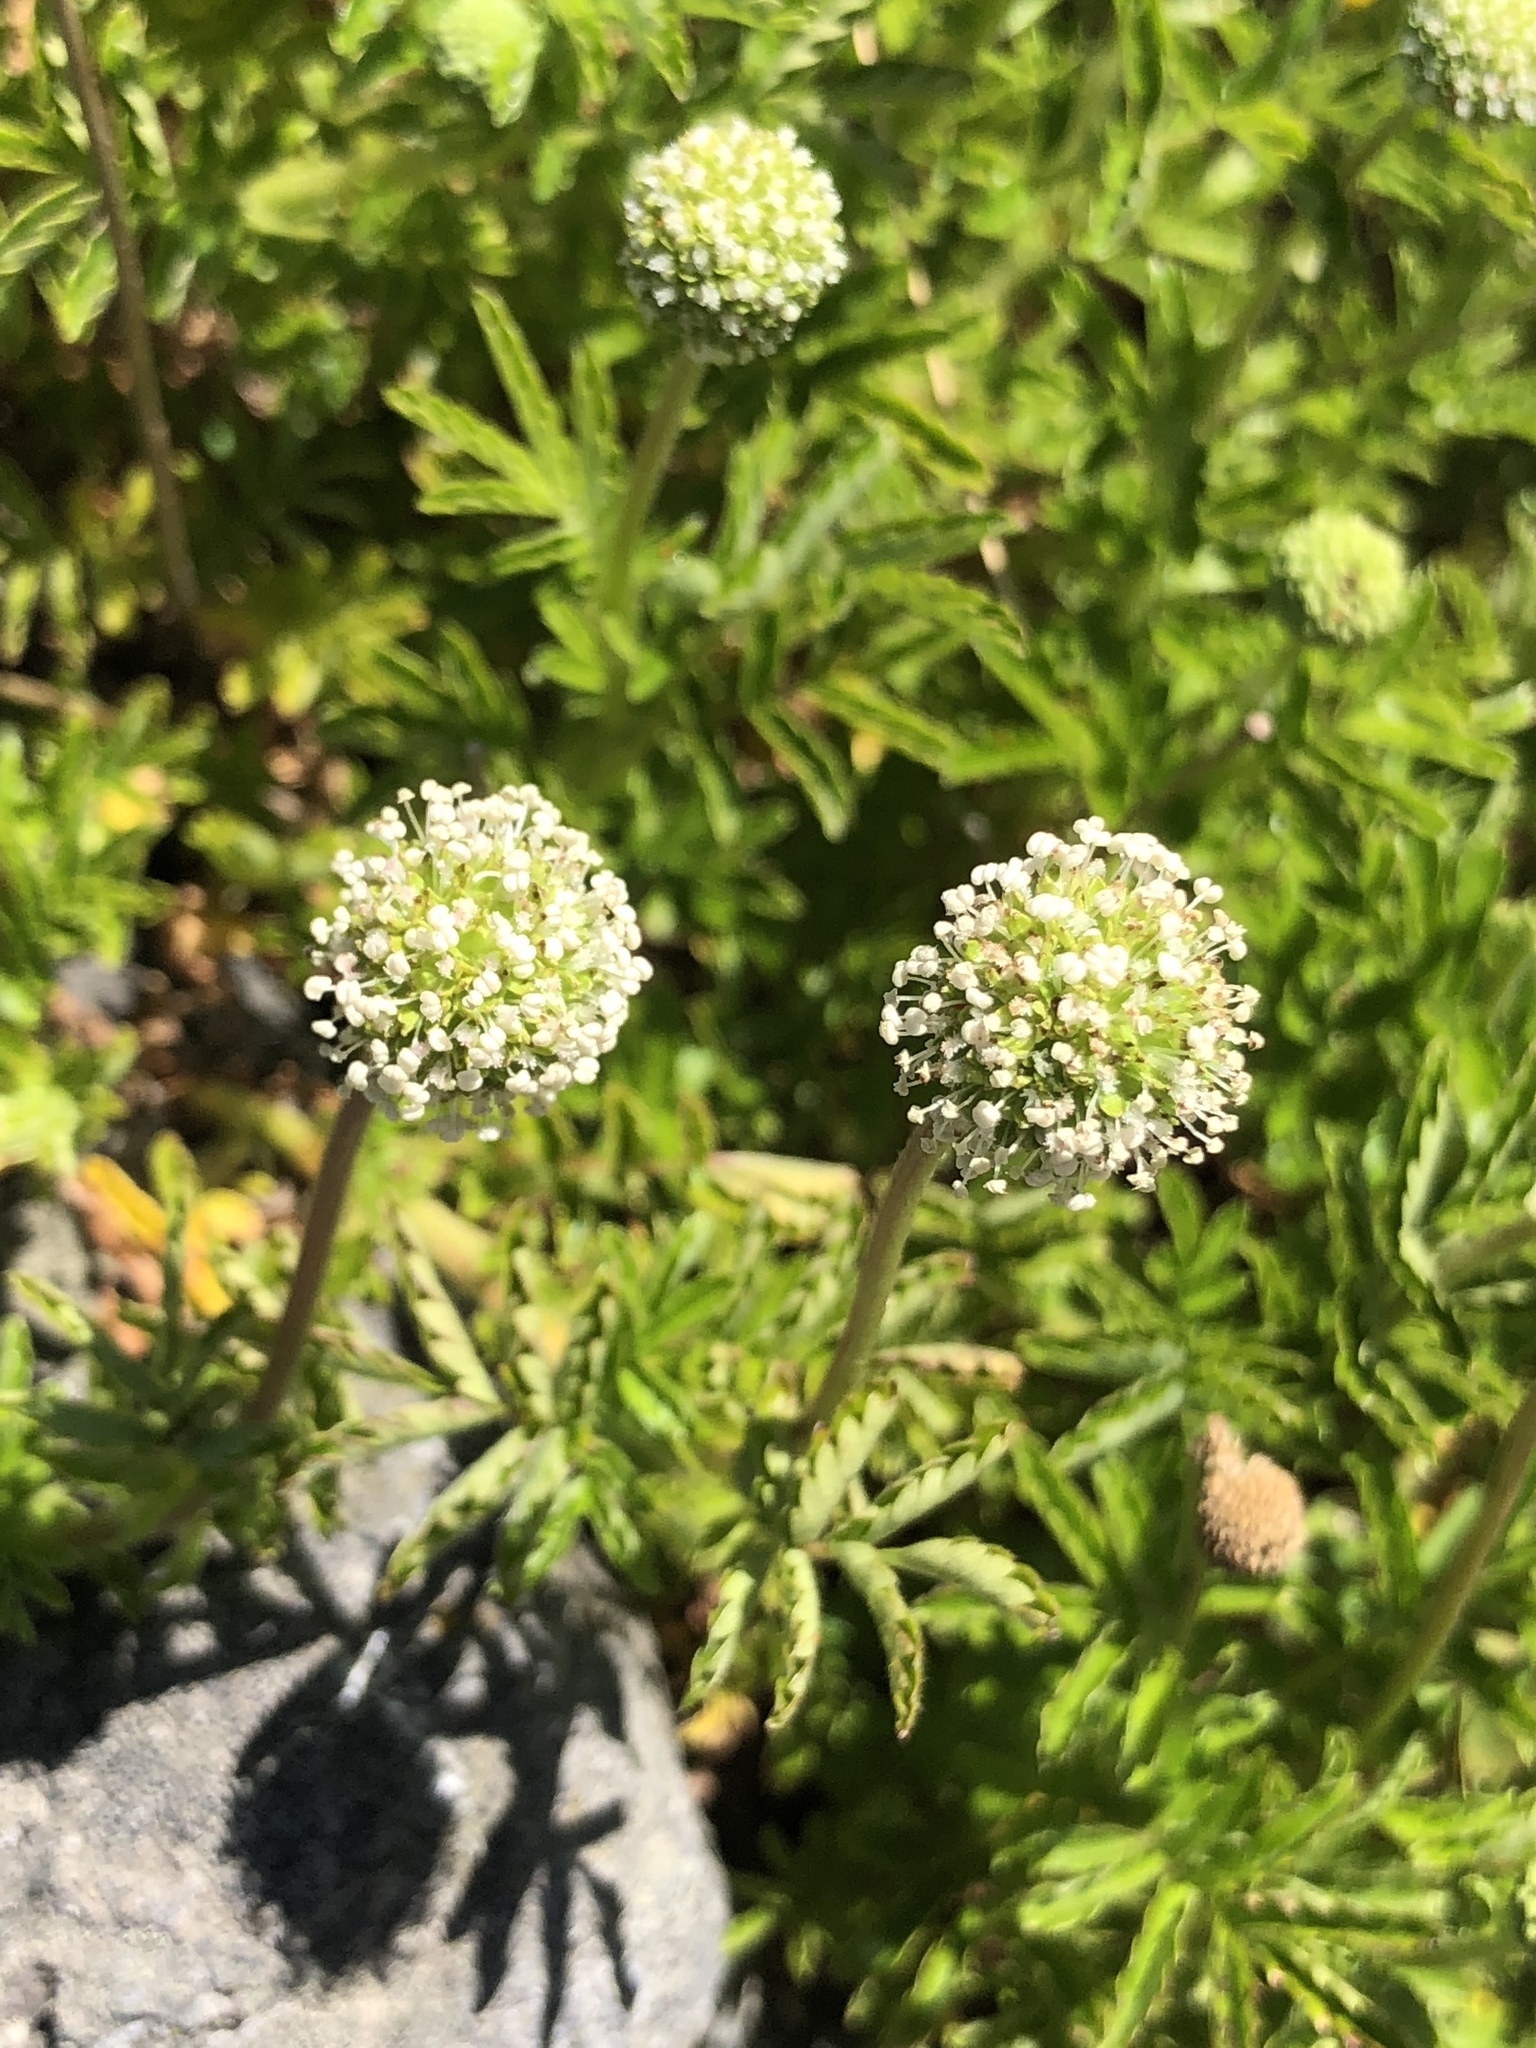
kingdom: Plantae
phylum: Tracheophyta
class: Magnoliopsida
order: Rosales
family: Rosaceae
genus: Acaena
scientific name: Acaena novae-zelandiae
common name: Pirri-pirri-bur
